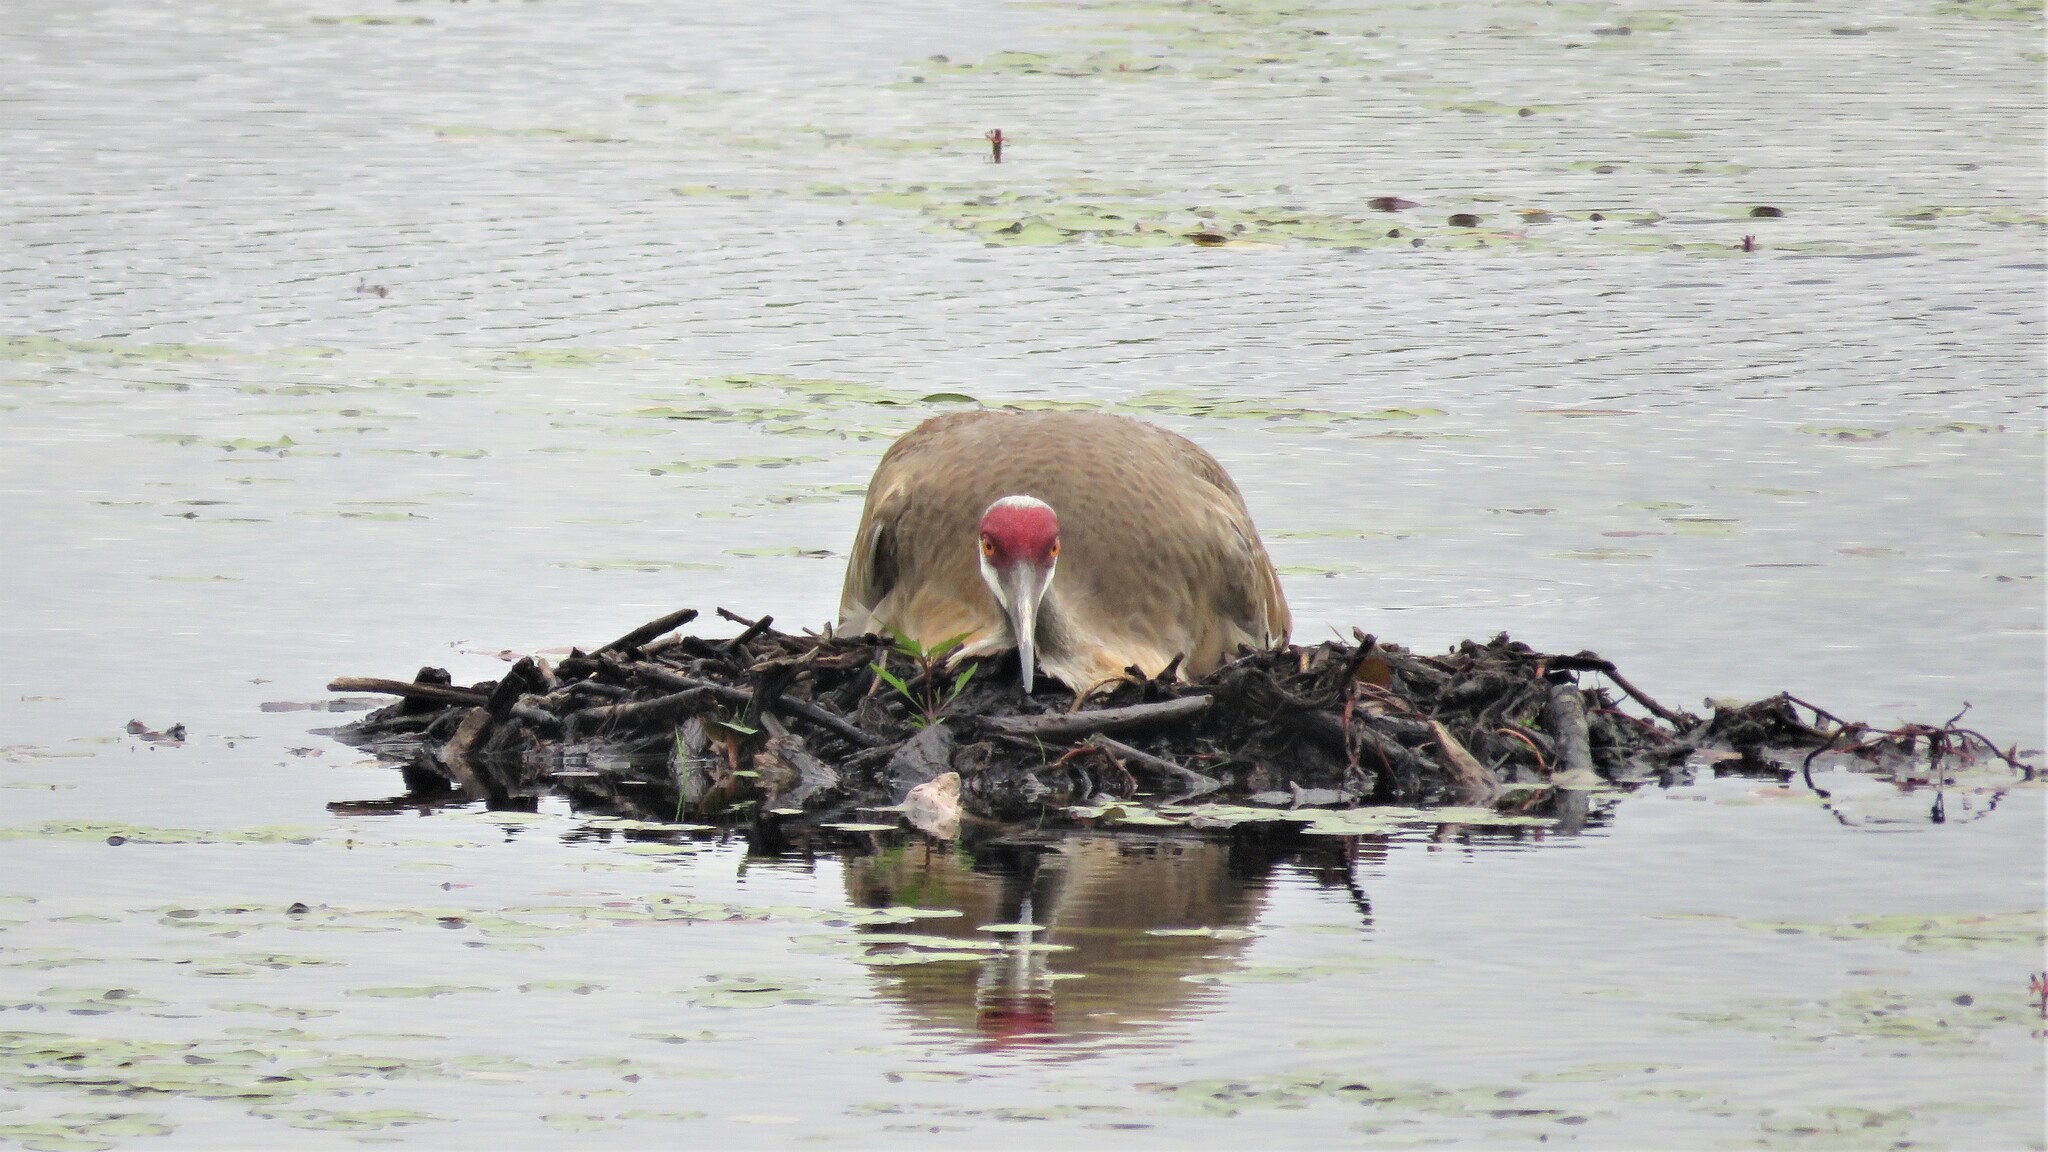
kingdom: Animalia
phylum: Chordata
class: Aves
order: Gruiformes
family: Gruidae
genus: Grus
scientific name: Grus canadensis
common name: Sandhill crane
